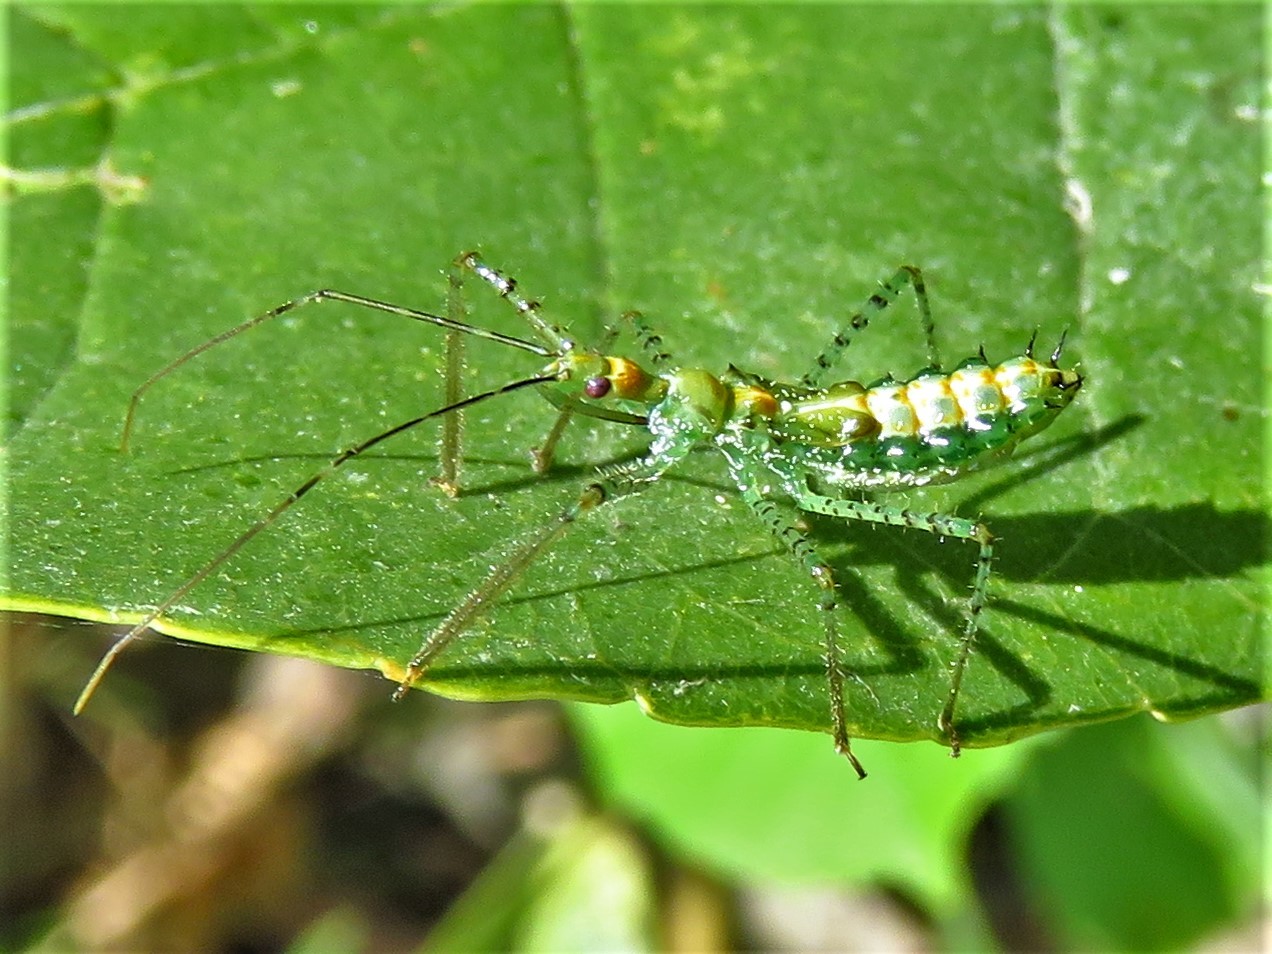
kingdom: Animalia
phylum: Arthropoda
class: Insecta
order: Hemiptera
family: Reduviidae
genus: Zelus
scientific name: Zelus renardii
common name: Assassin bug
